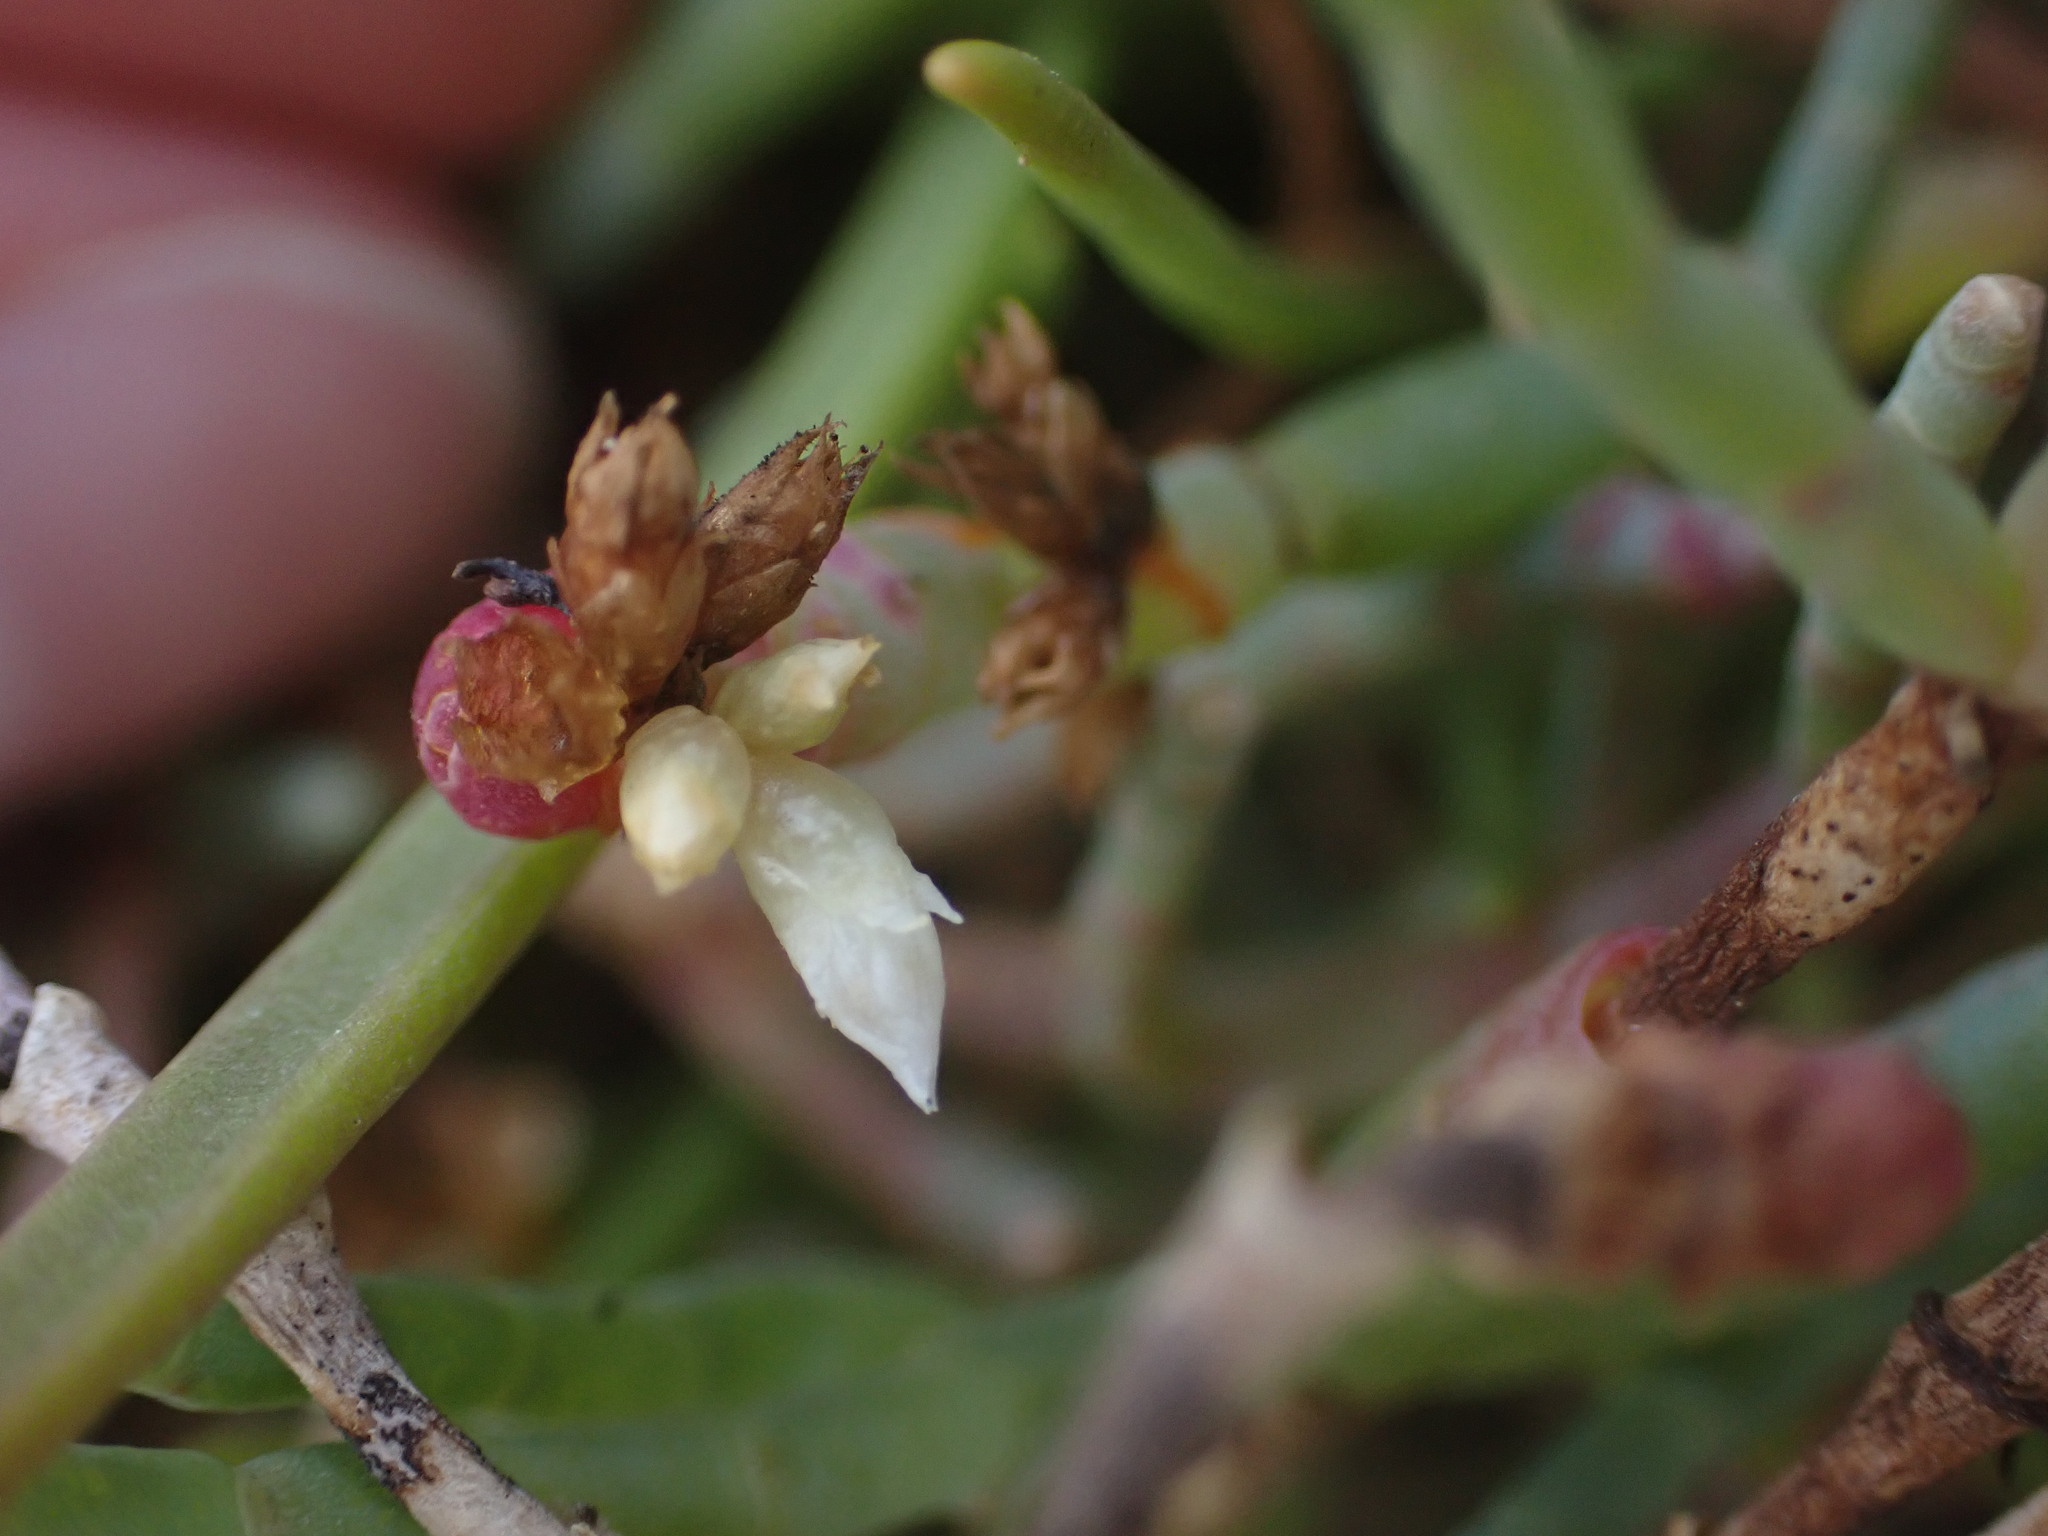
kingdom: Plantae
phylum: Tracheophyta
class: Magnoliopsida
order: Solanales
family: Convolvulaceae
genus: Cuscuta
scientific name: Cuscuta pacifica
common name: Large saltmarsh dodder
